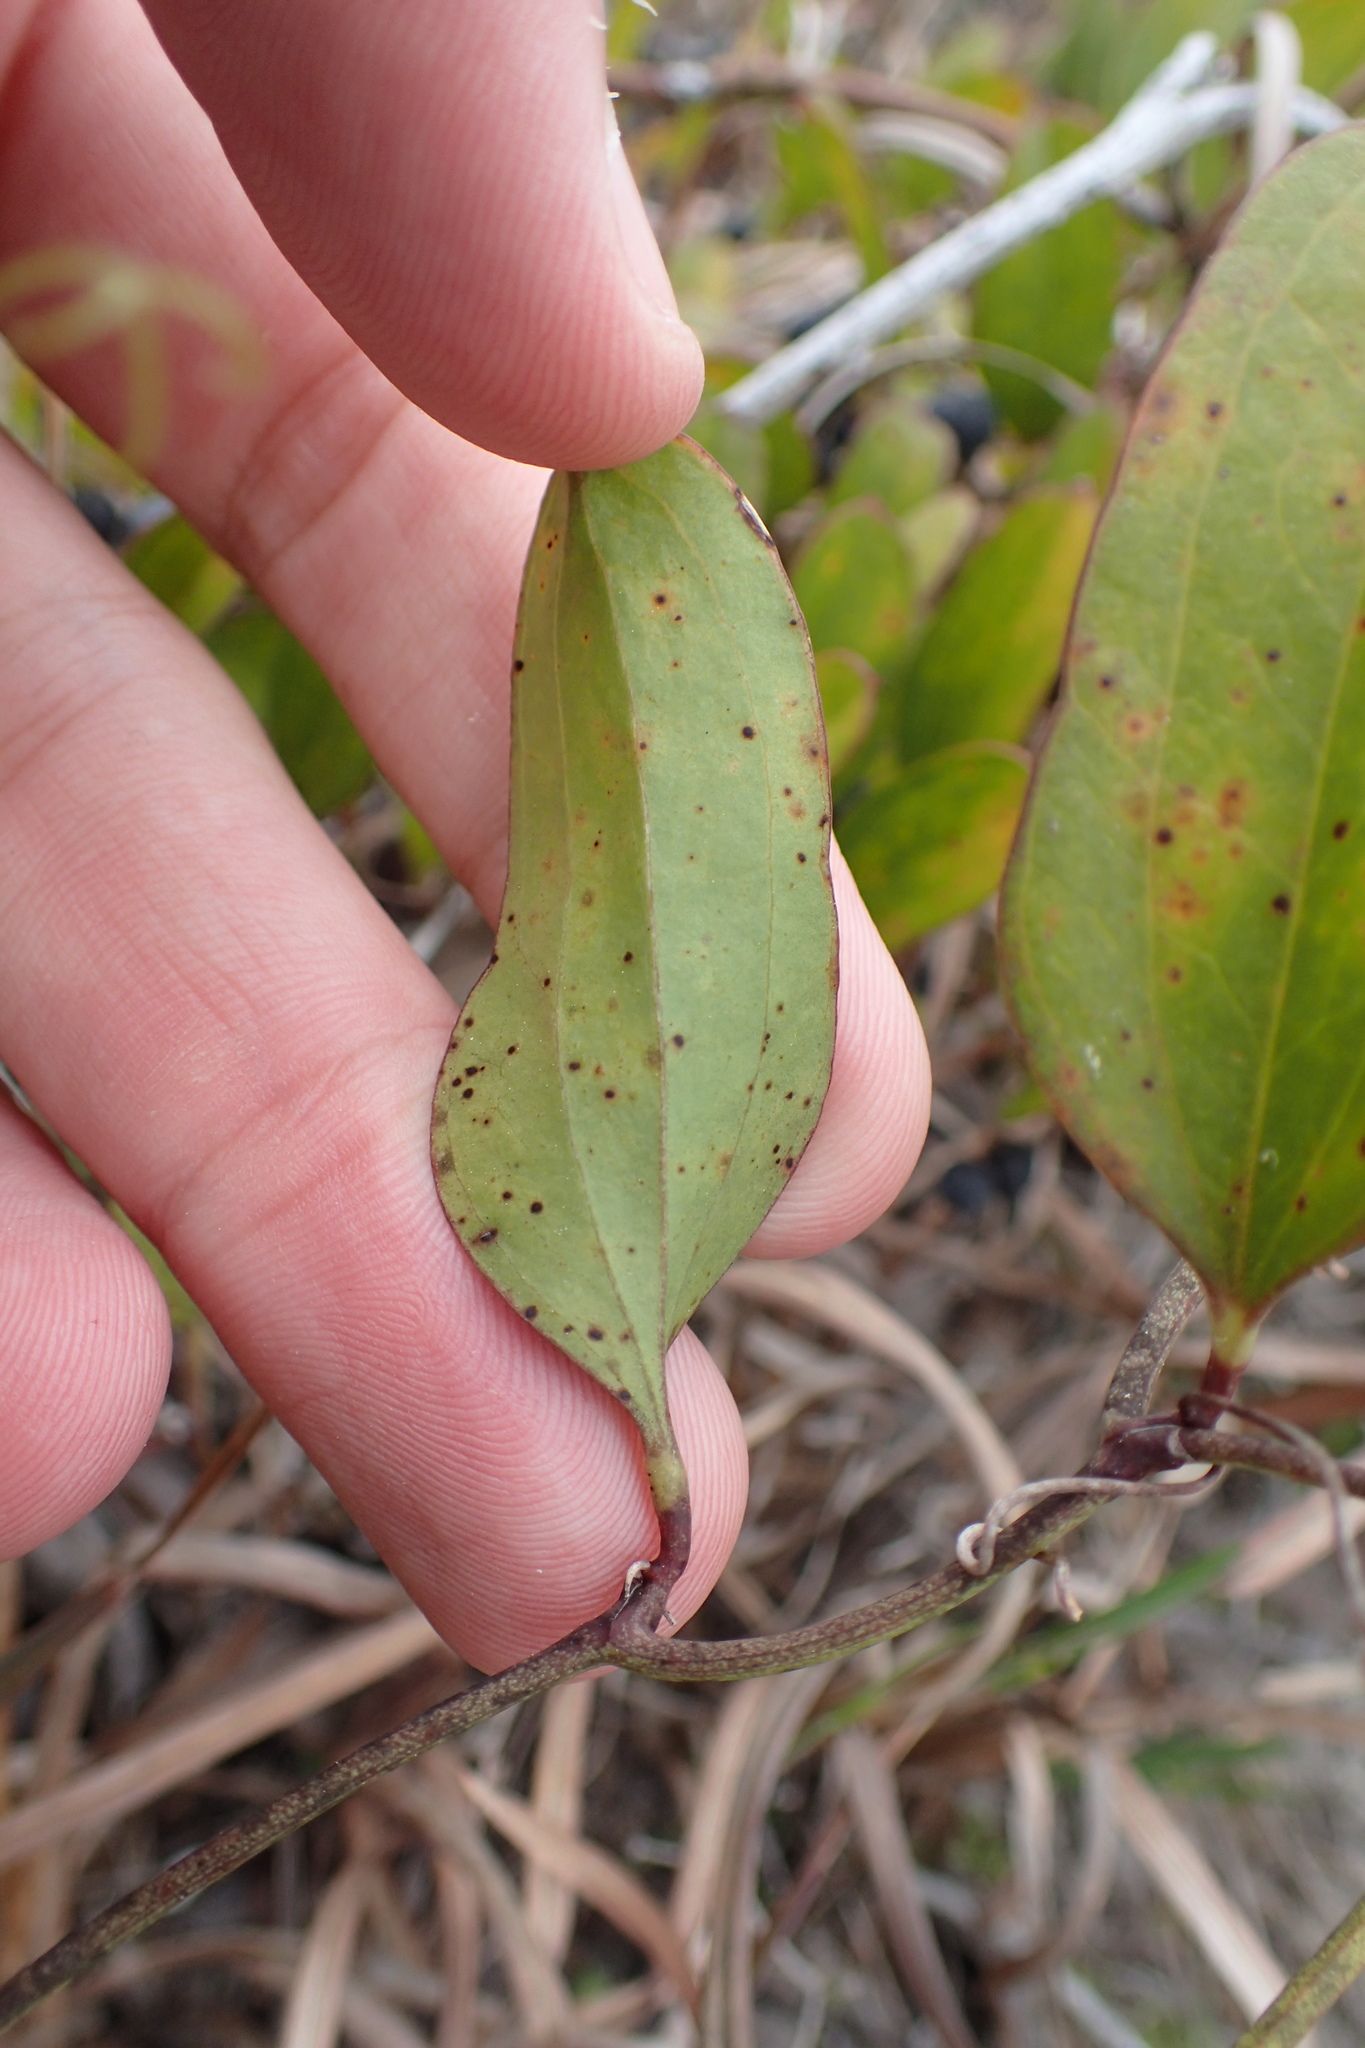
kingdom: Plantae
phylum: Tracheophyta
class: Liliopsida
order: Liliales
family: Smilacaceae
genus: Smilax
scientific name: Smilax auriculata
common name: Wild bamboo
